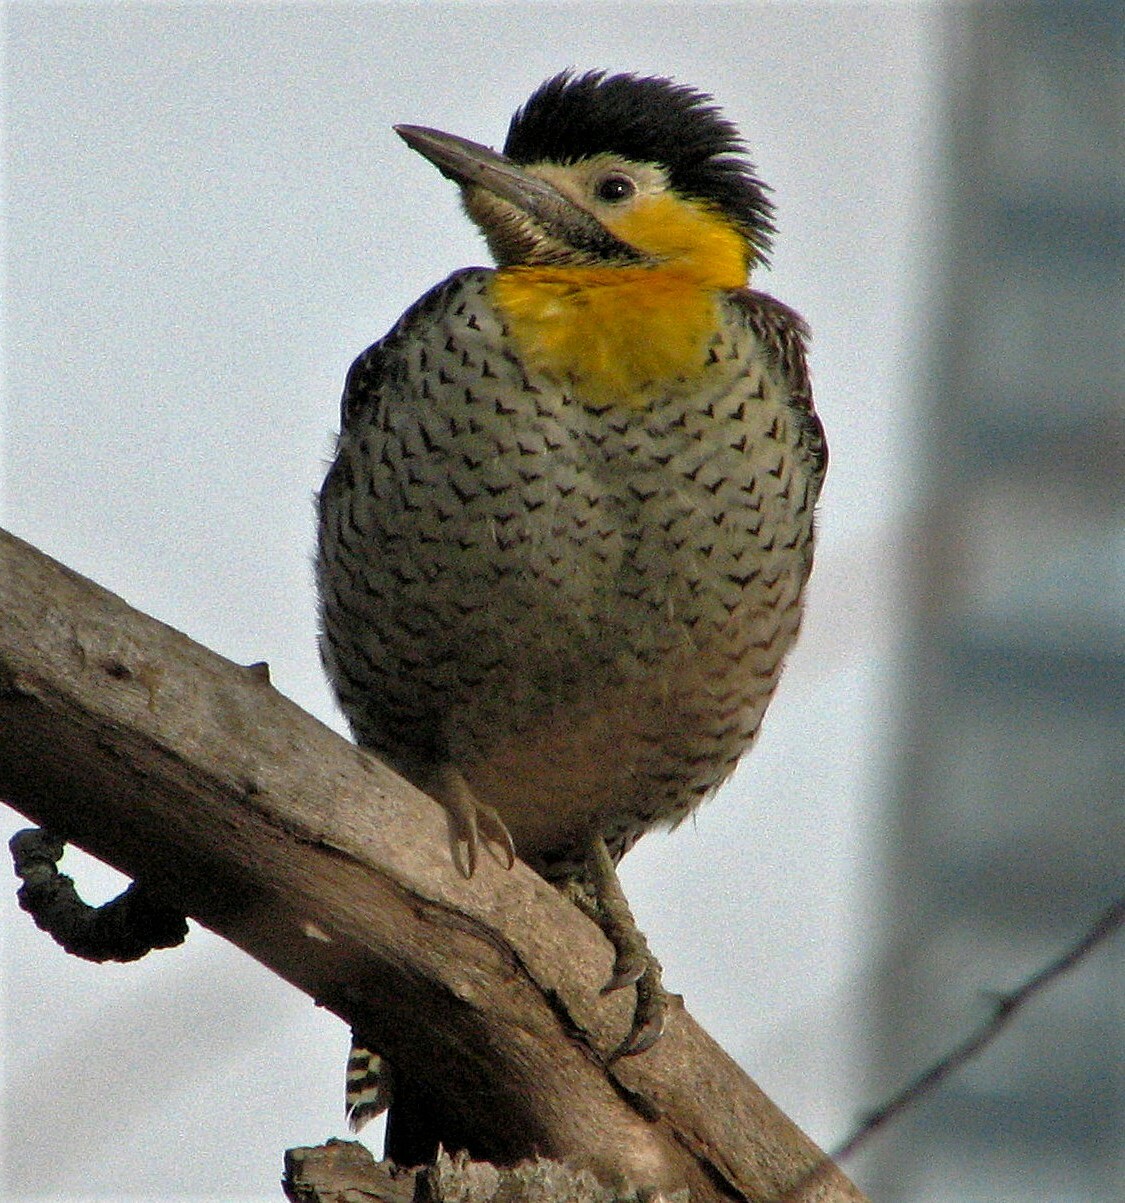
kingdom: Animalia
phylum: Chordata
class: Aves
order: Piciformes
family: Picidae
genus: Colaptes
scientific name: Colaptes campestris
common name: Campo flicker
